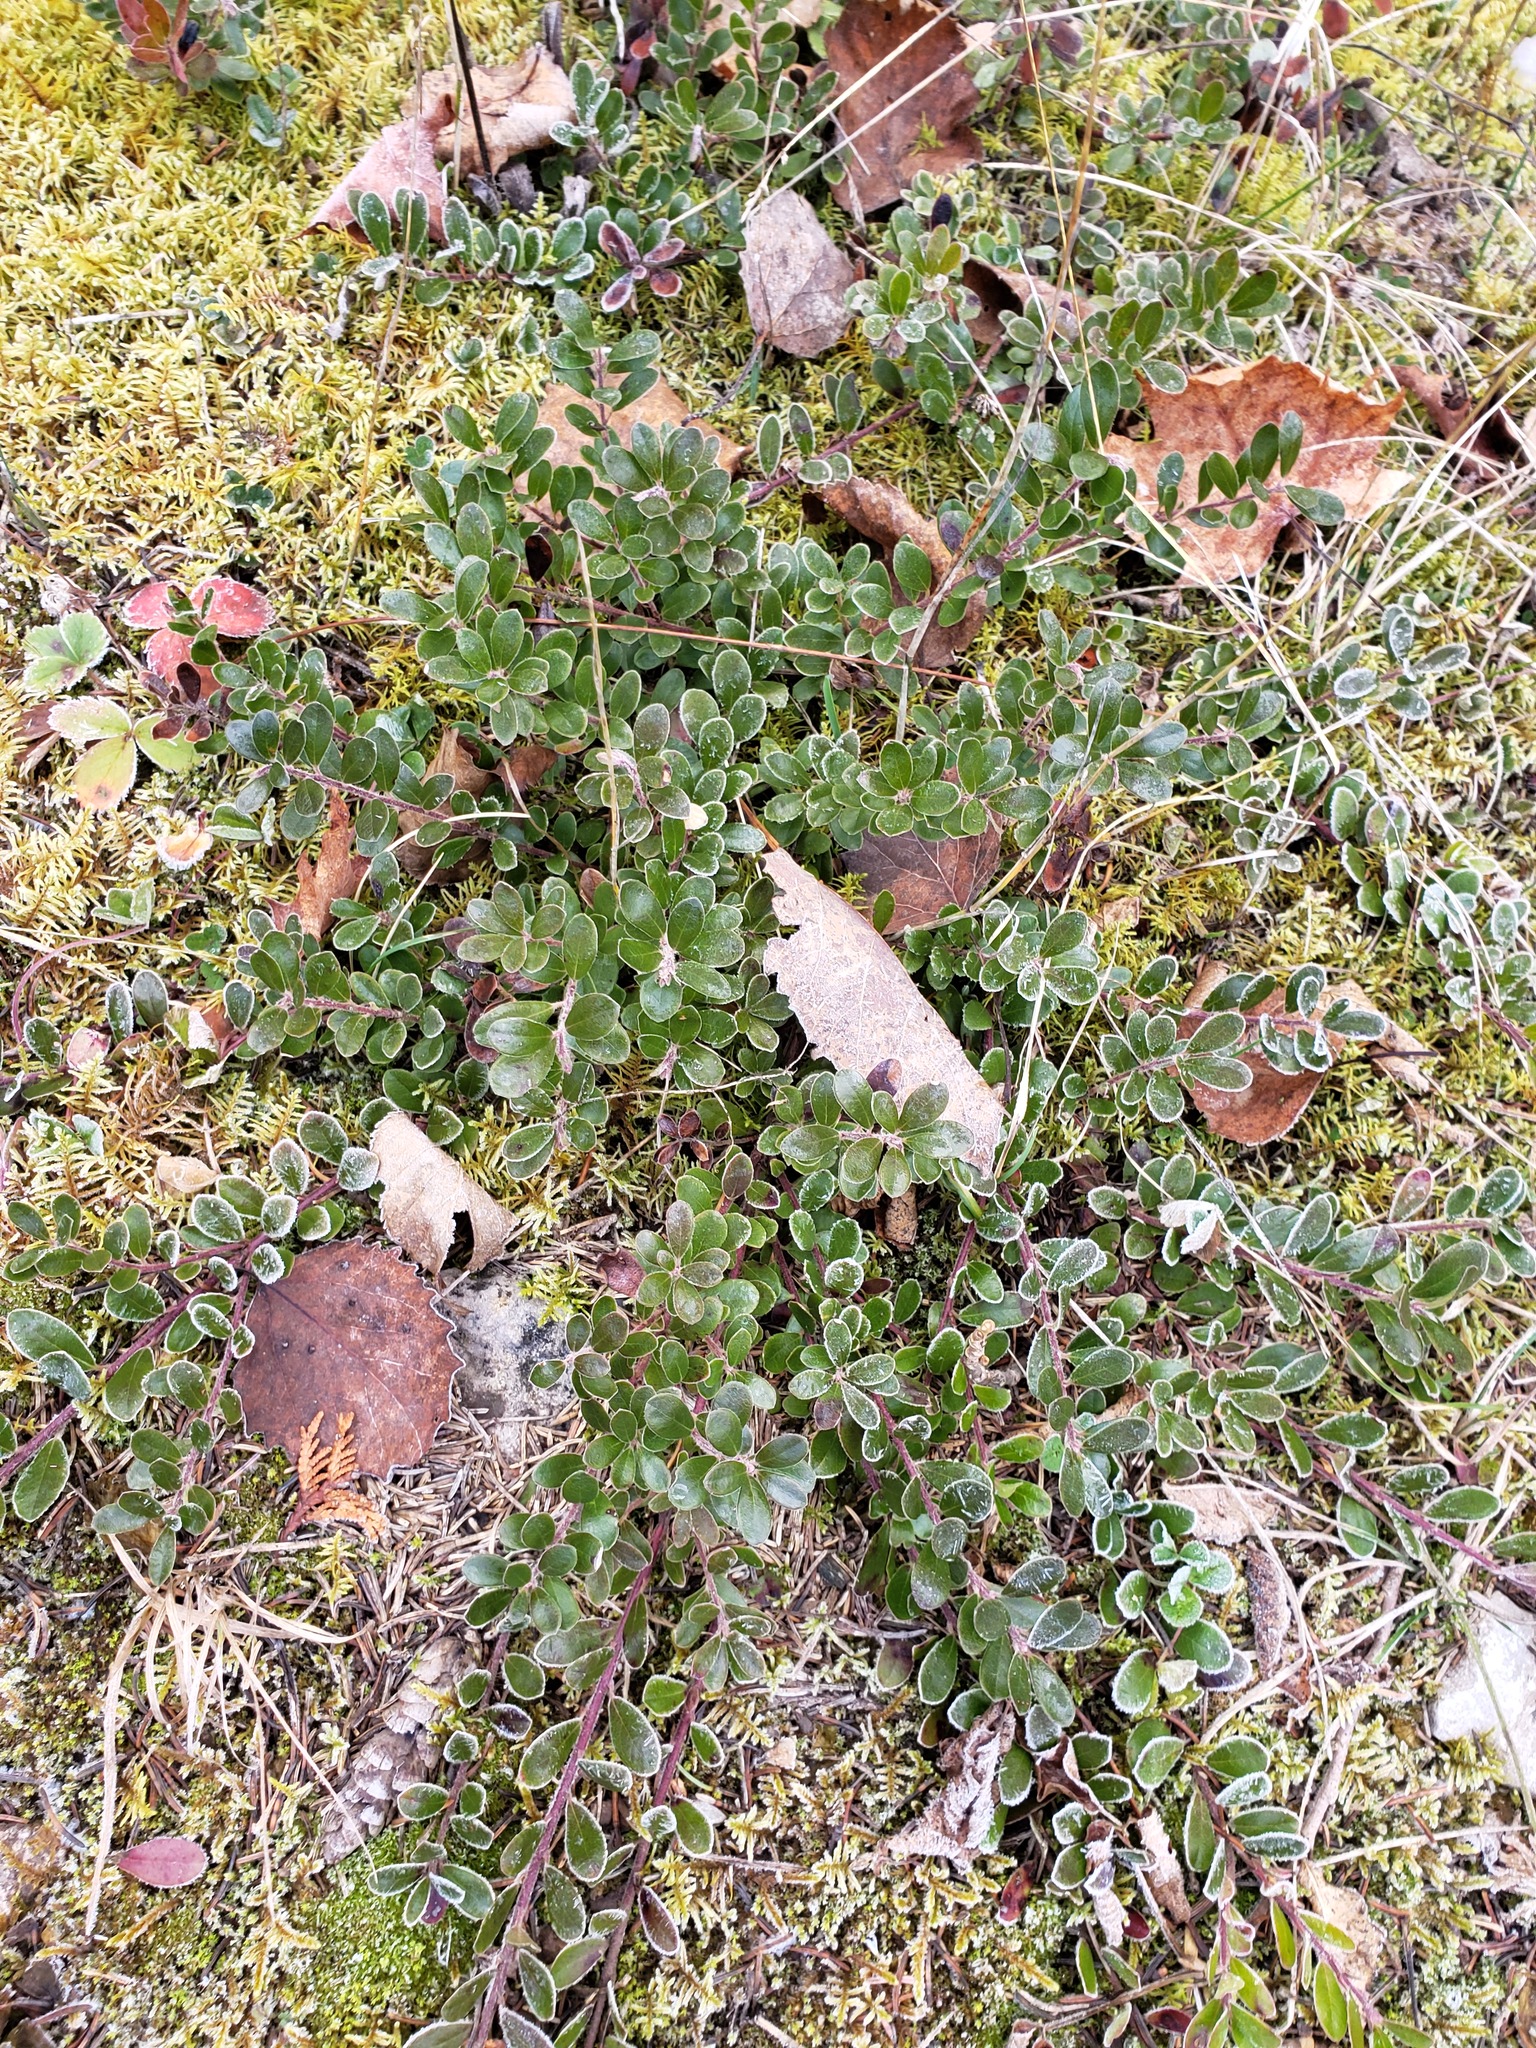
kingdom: Plantae
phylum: Tracheophyta
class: Magnoliopsida
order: Ericales
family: Ericaceae
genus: Arctostaphylos
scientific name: Arctostaphylos uva-ursi
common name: Bearberry
